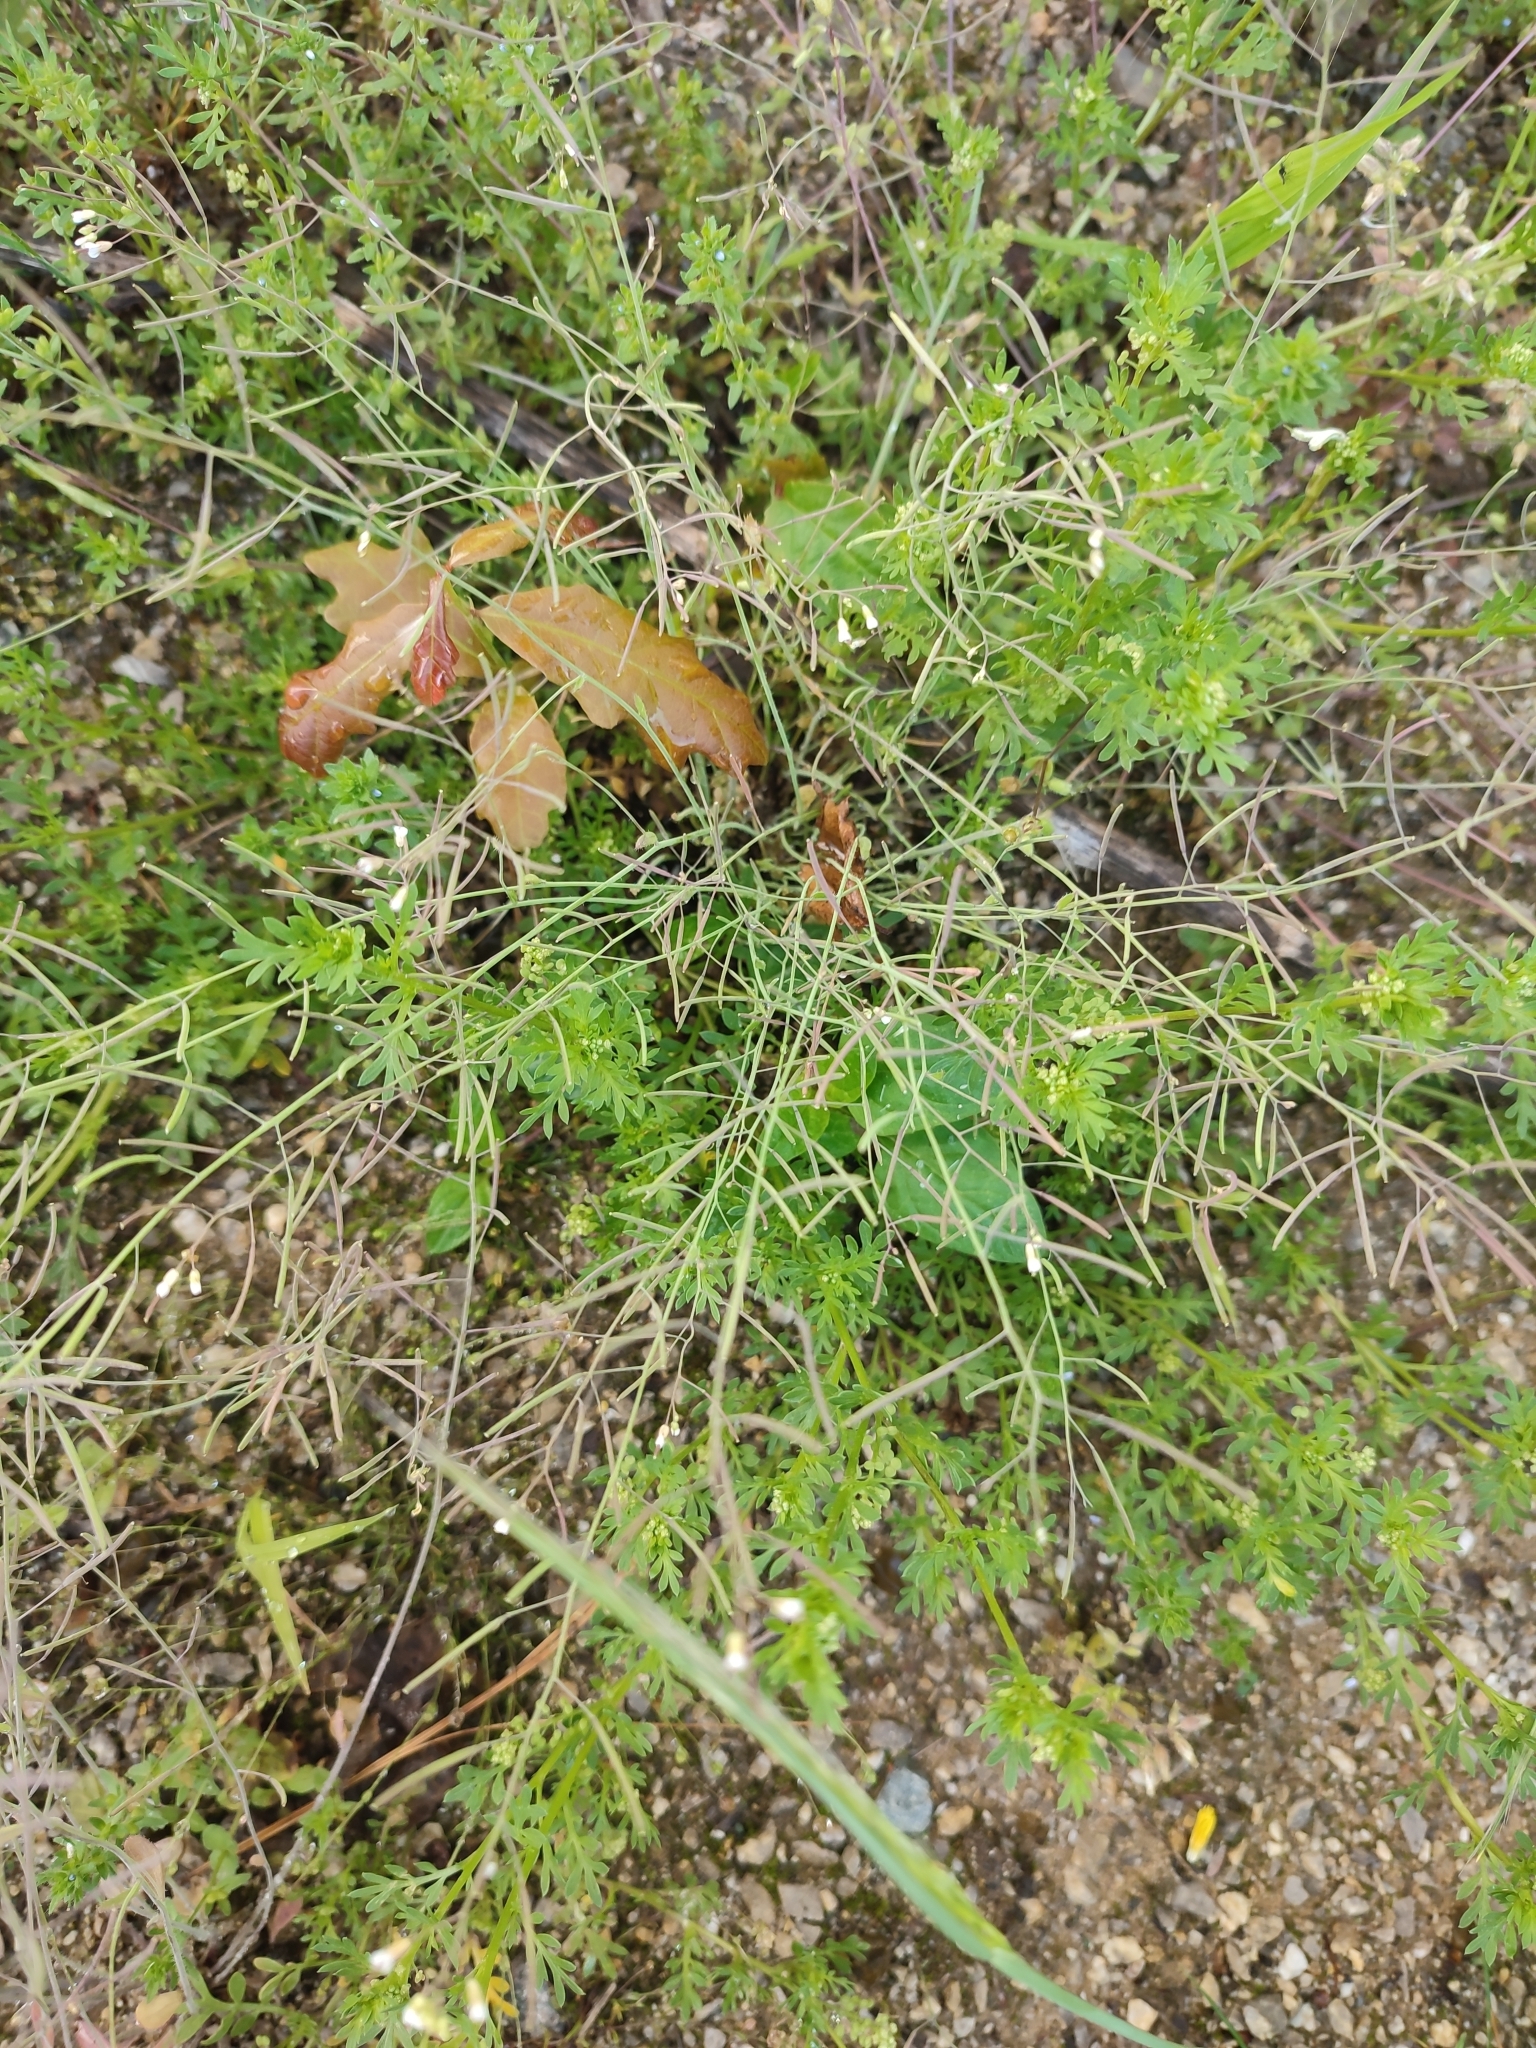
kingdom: Plantae
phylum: Tracheophyta
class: Magnoliopsida
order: Brassicales
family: Brassicaceae
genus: Arabidopsis
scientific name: Arabidopsis thaliana
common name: Thale cress
